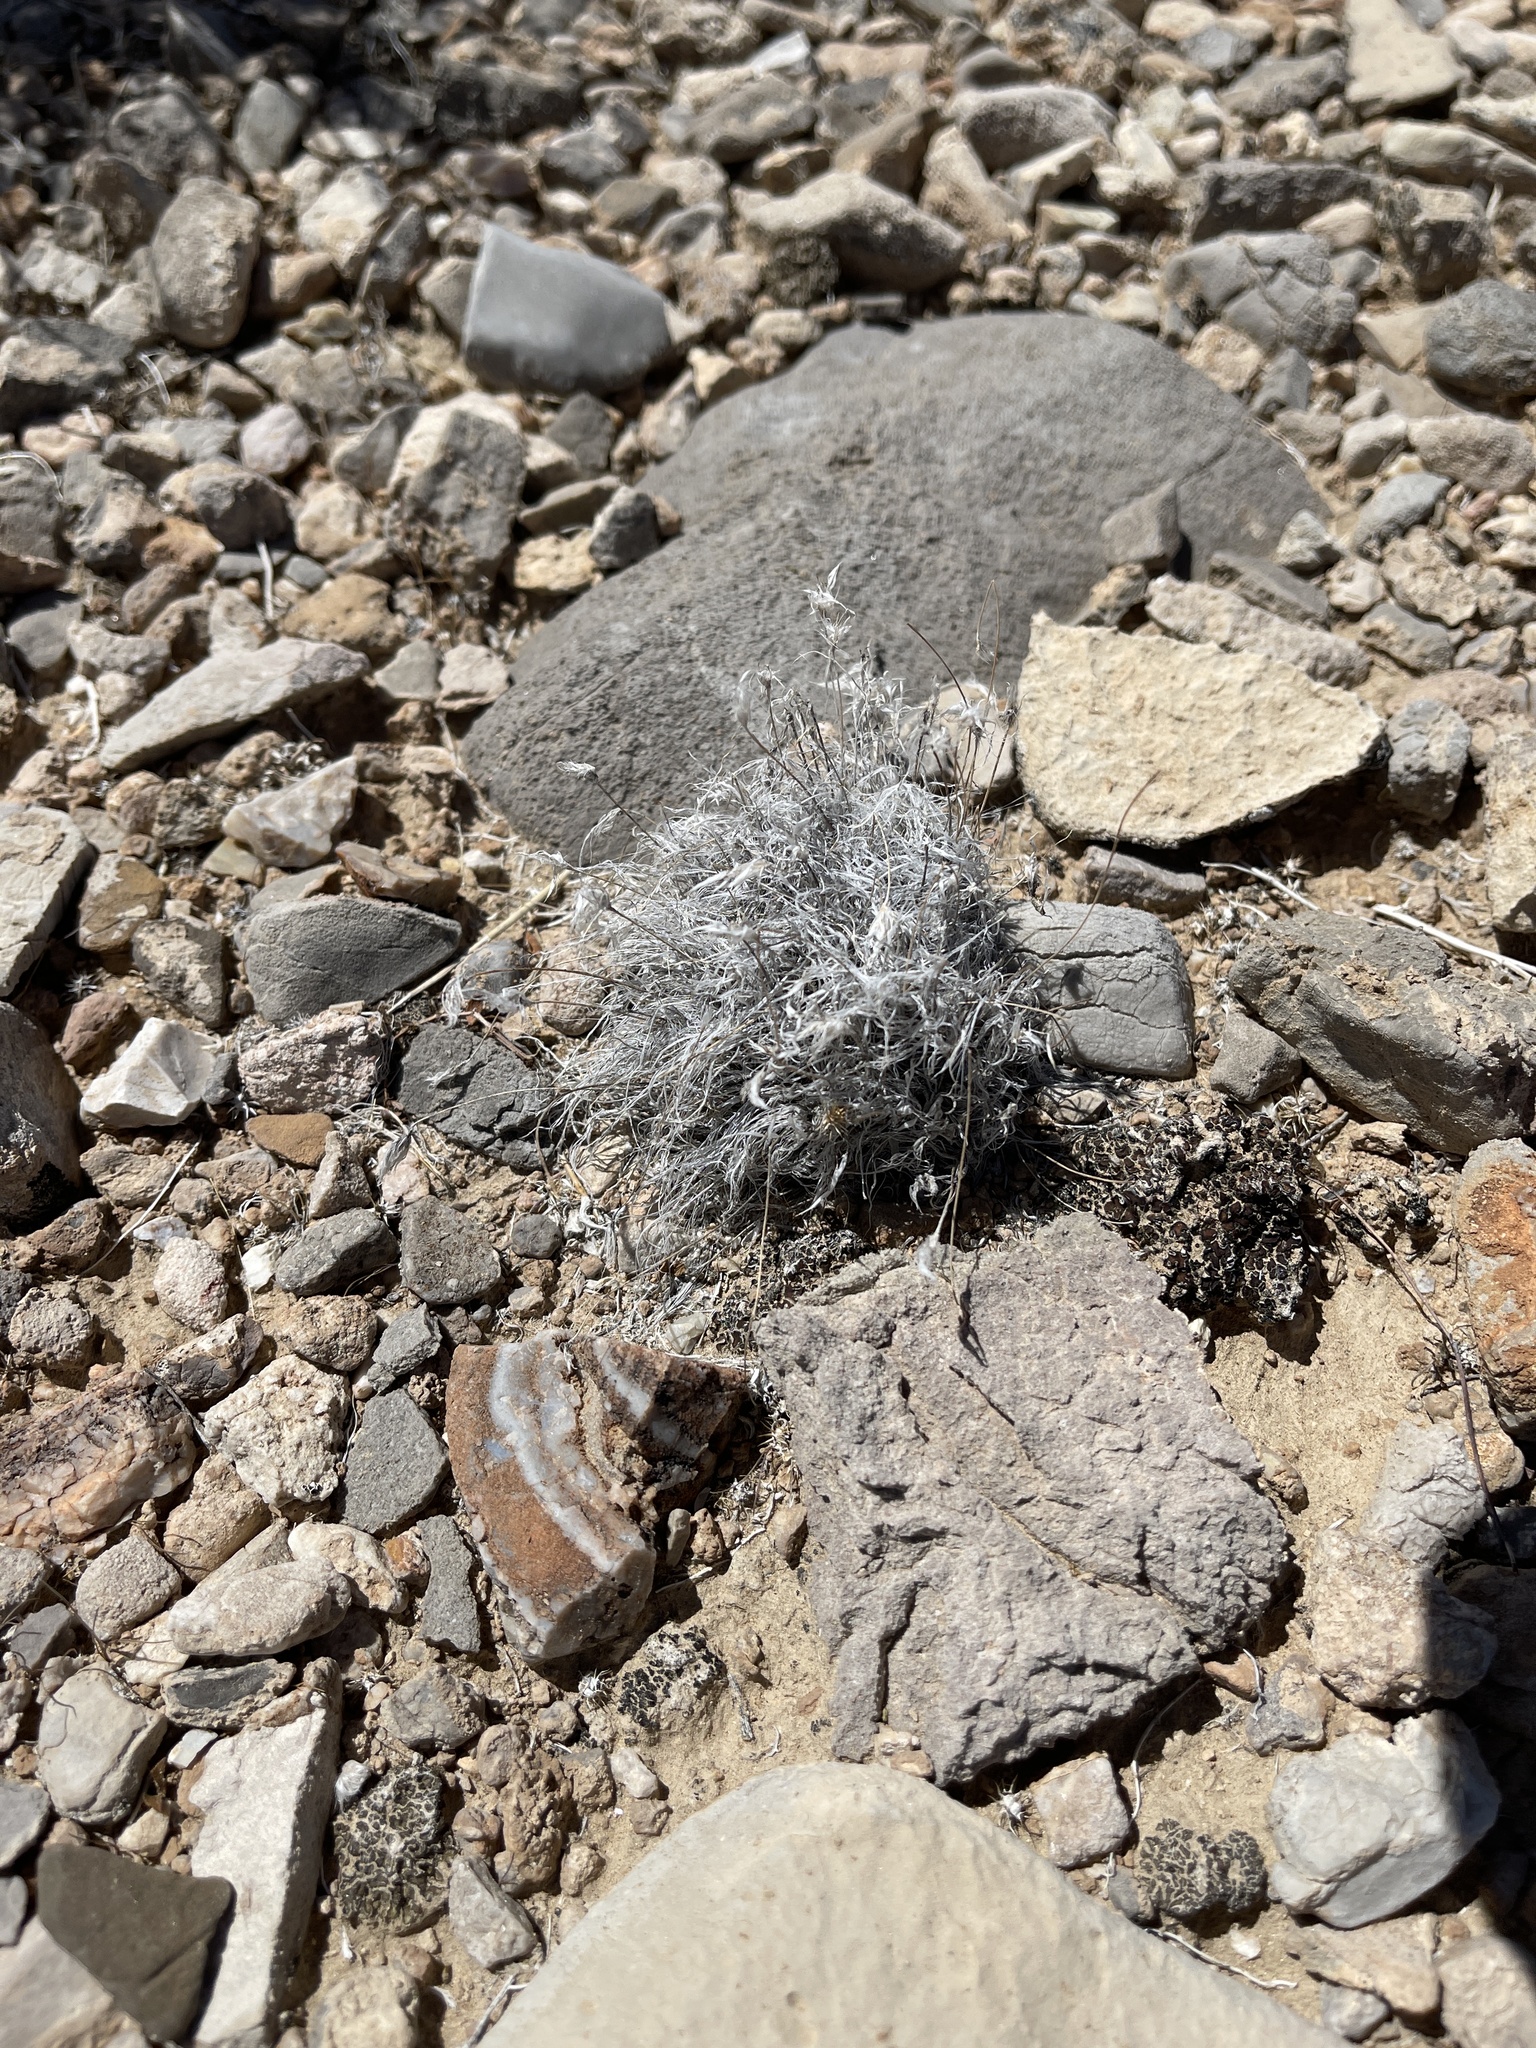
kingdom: Plantae
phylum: Tracheophyta
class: Liliopsida
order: Poales
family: Poaceae
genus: Dasyochloa
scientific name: Dasyochloa pulchella
